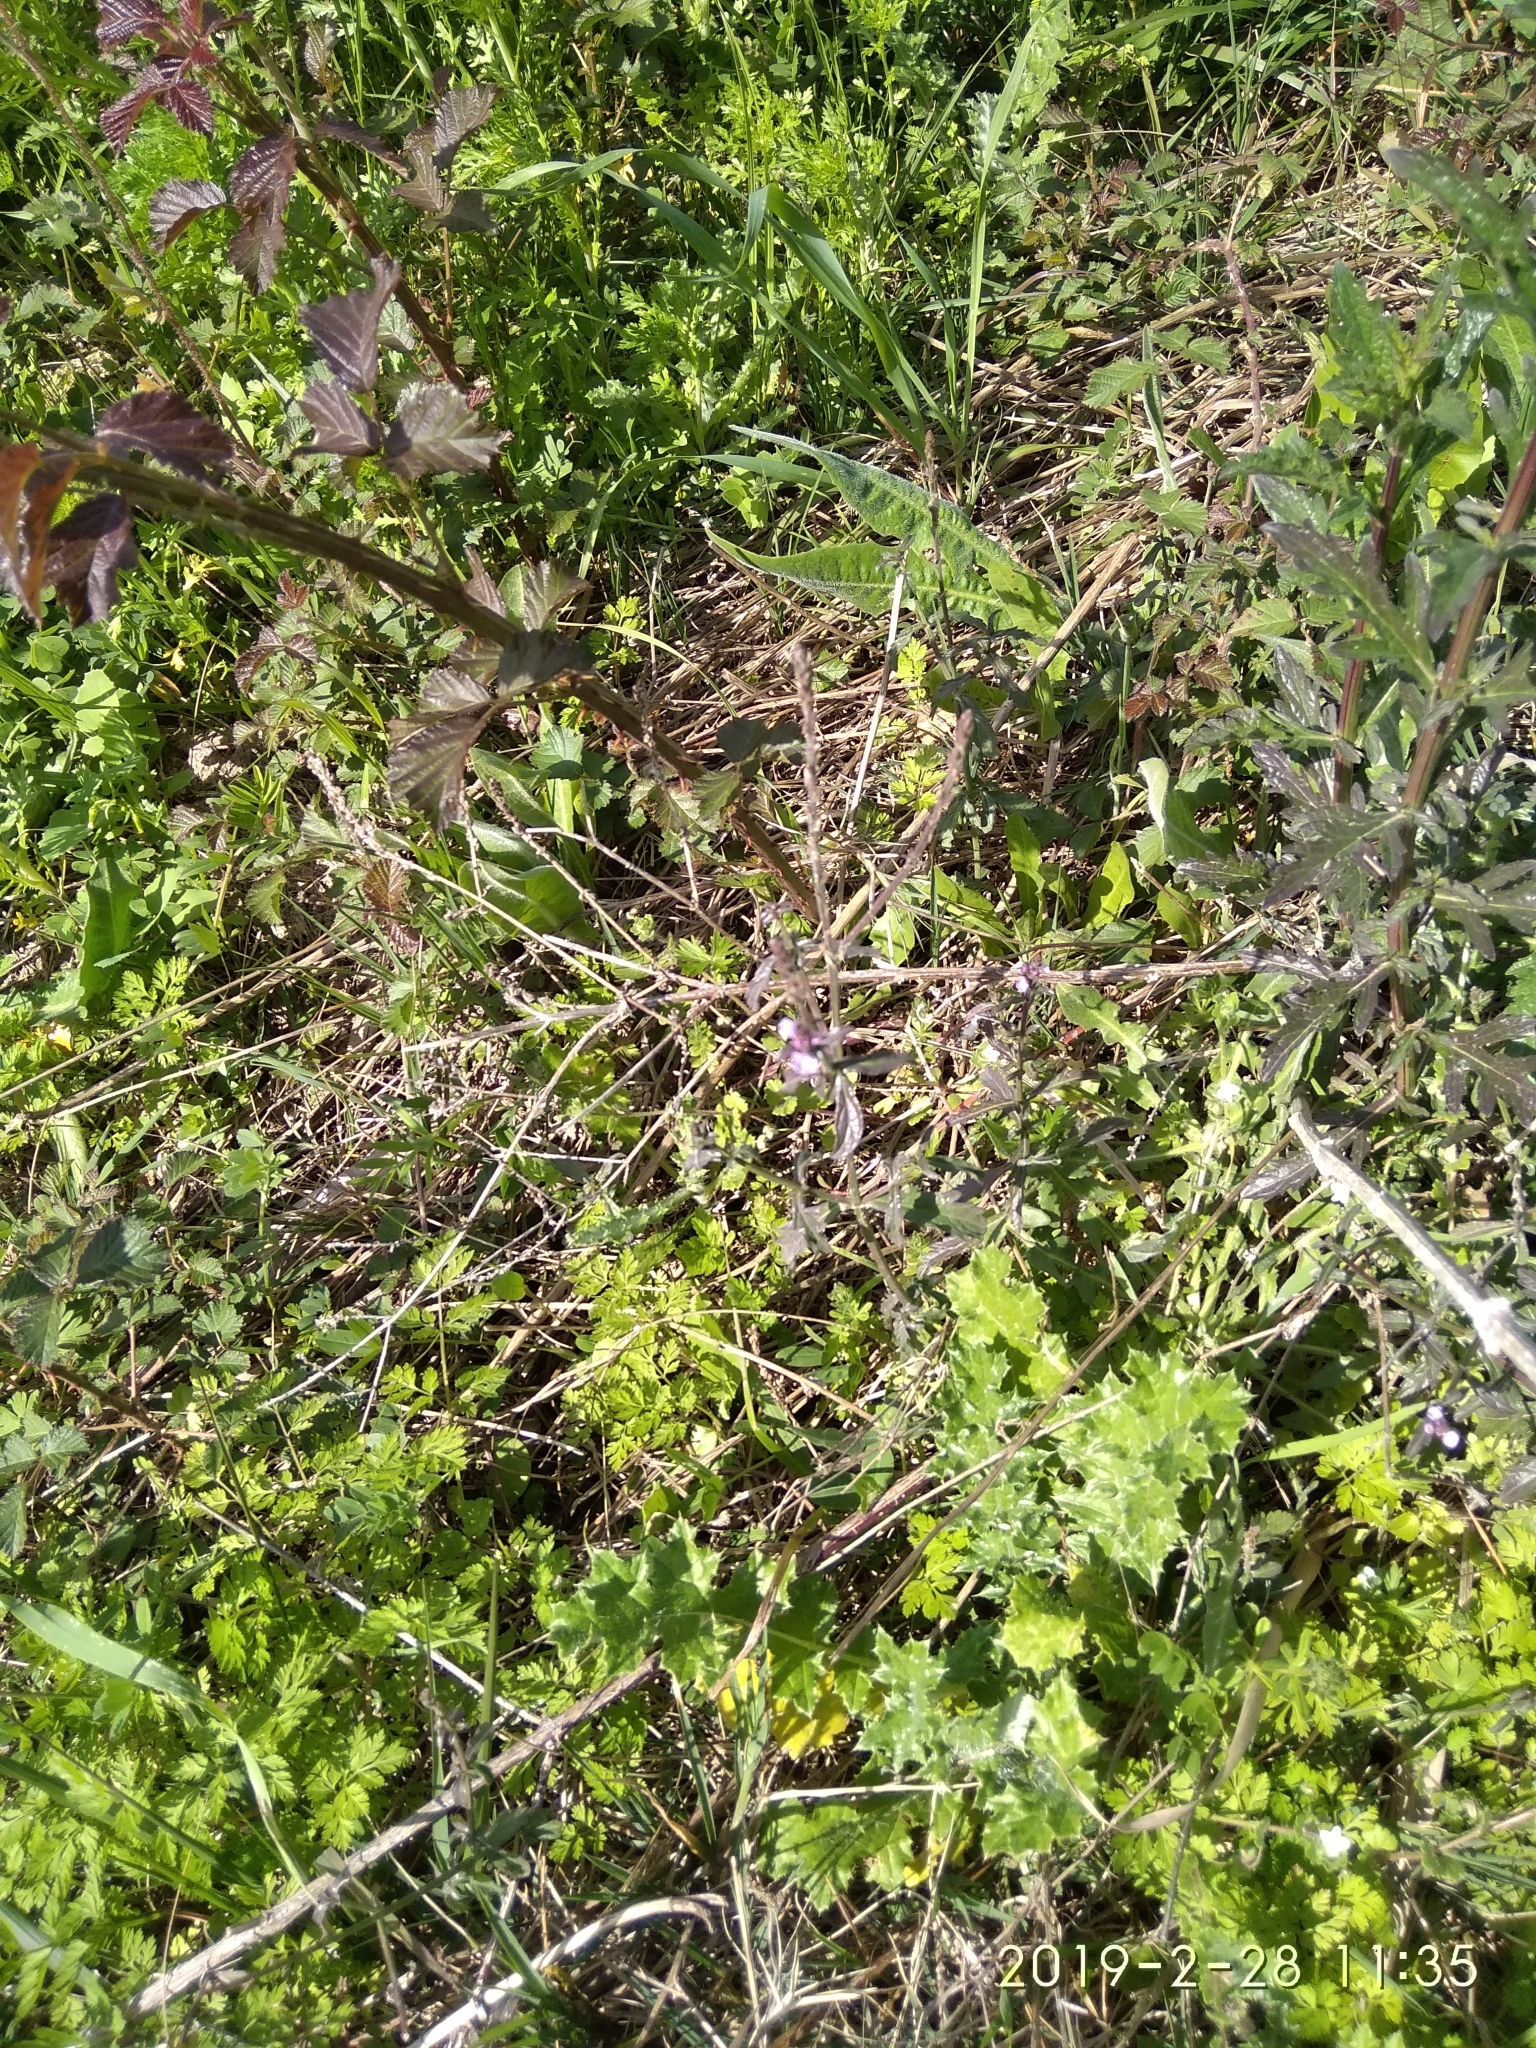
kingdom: Plantae
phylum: Tracheophyta
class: Magnoliopsida
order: Lamiales
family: Verbenaceae
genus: Verbena
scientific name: Verbena officinalis
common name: Vervain
